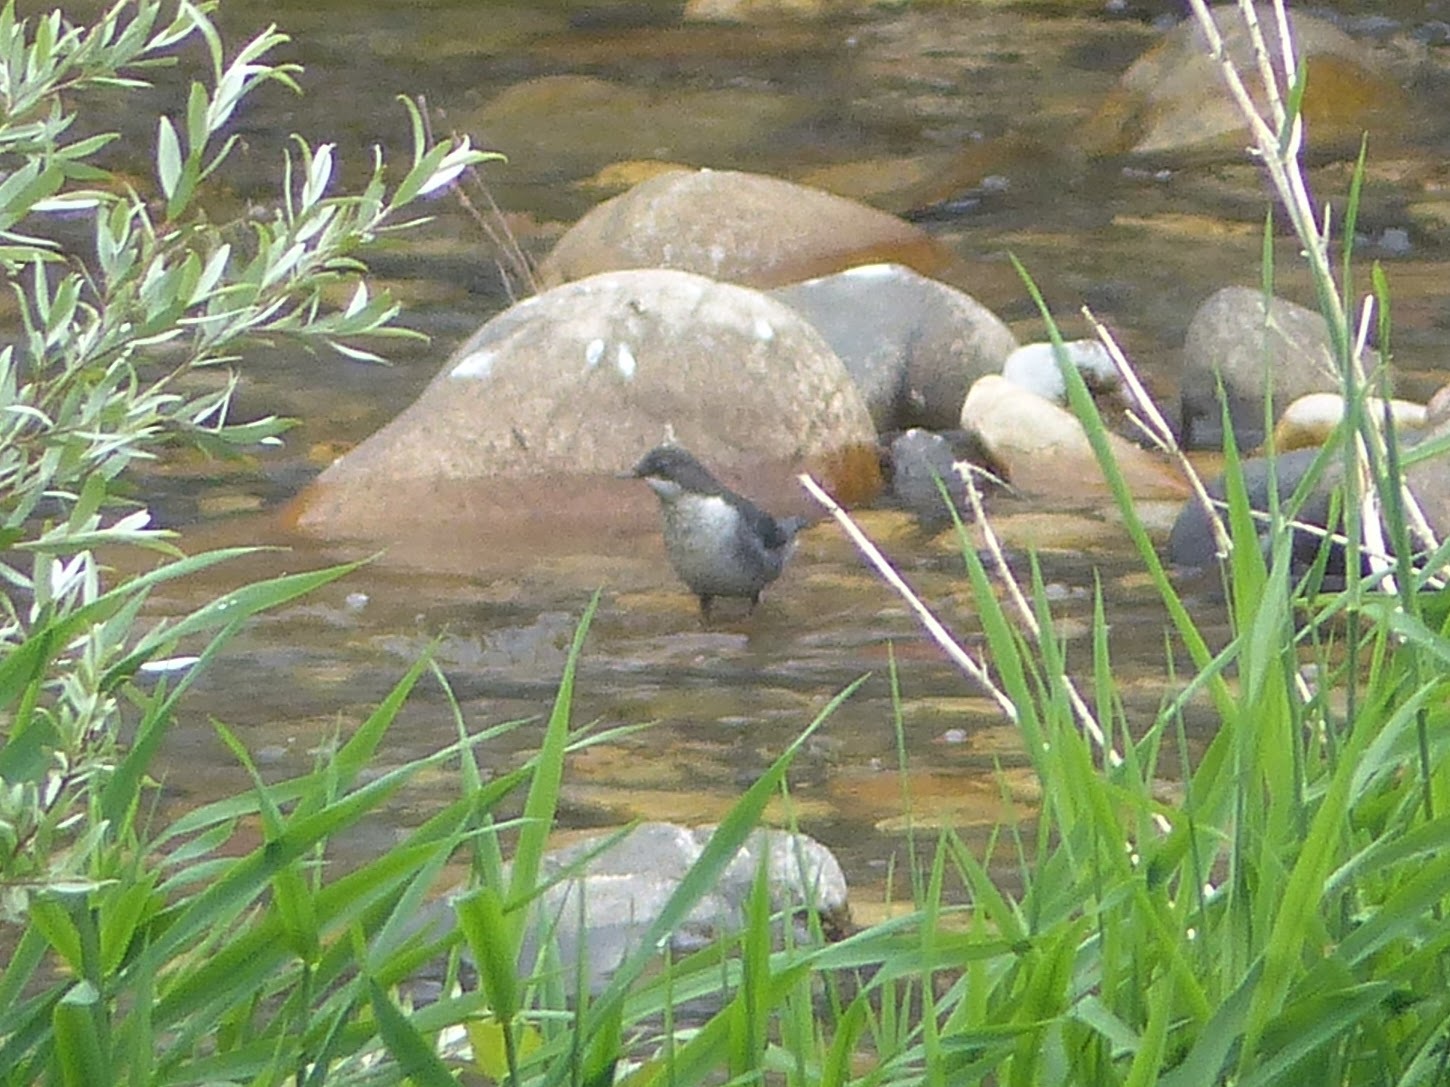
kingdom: Animalia
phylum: Chordata
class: Aves
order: Passeriformes
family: Cinclidae
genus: Cinclus
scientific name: Cinclus cinclus
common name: White-throated dipper
